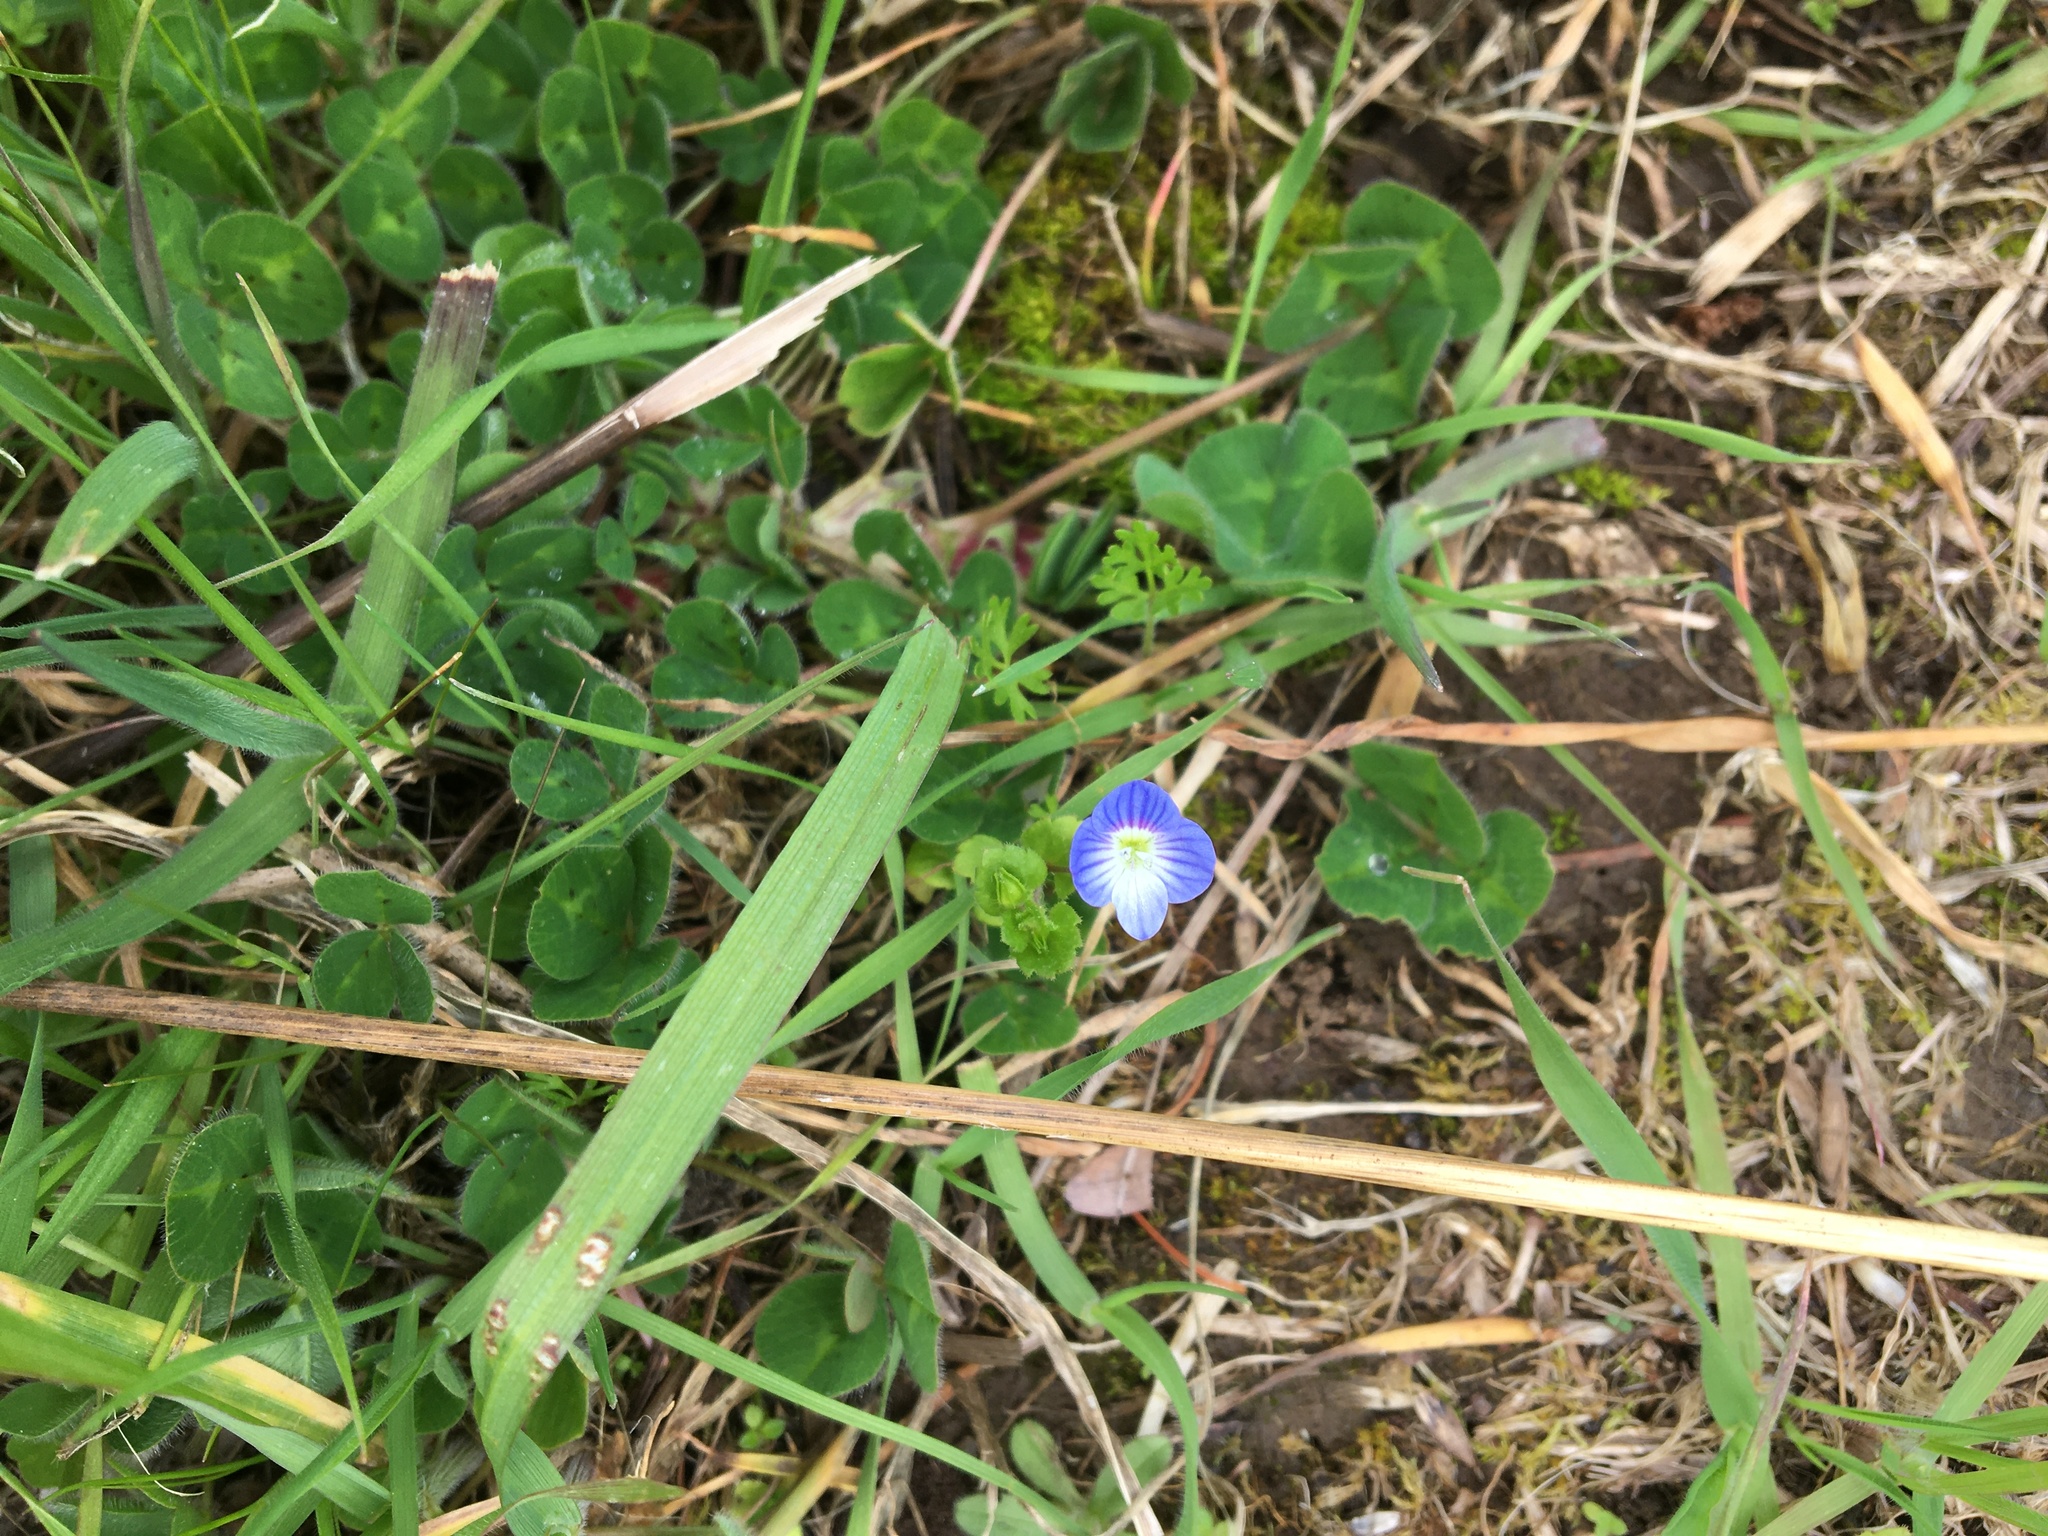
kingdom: Plantae
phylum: Tracheophyta
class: Magnoliopsida
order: Lamiales
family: Plantaginaceae
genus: Veronica
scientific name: Veronica persica
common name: Common field-speedwell
